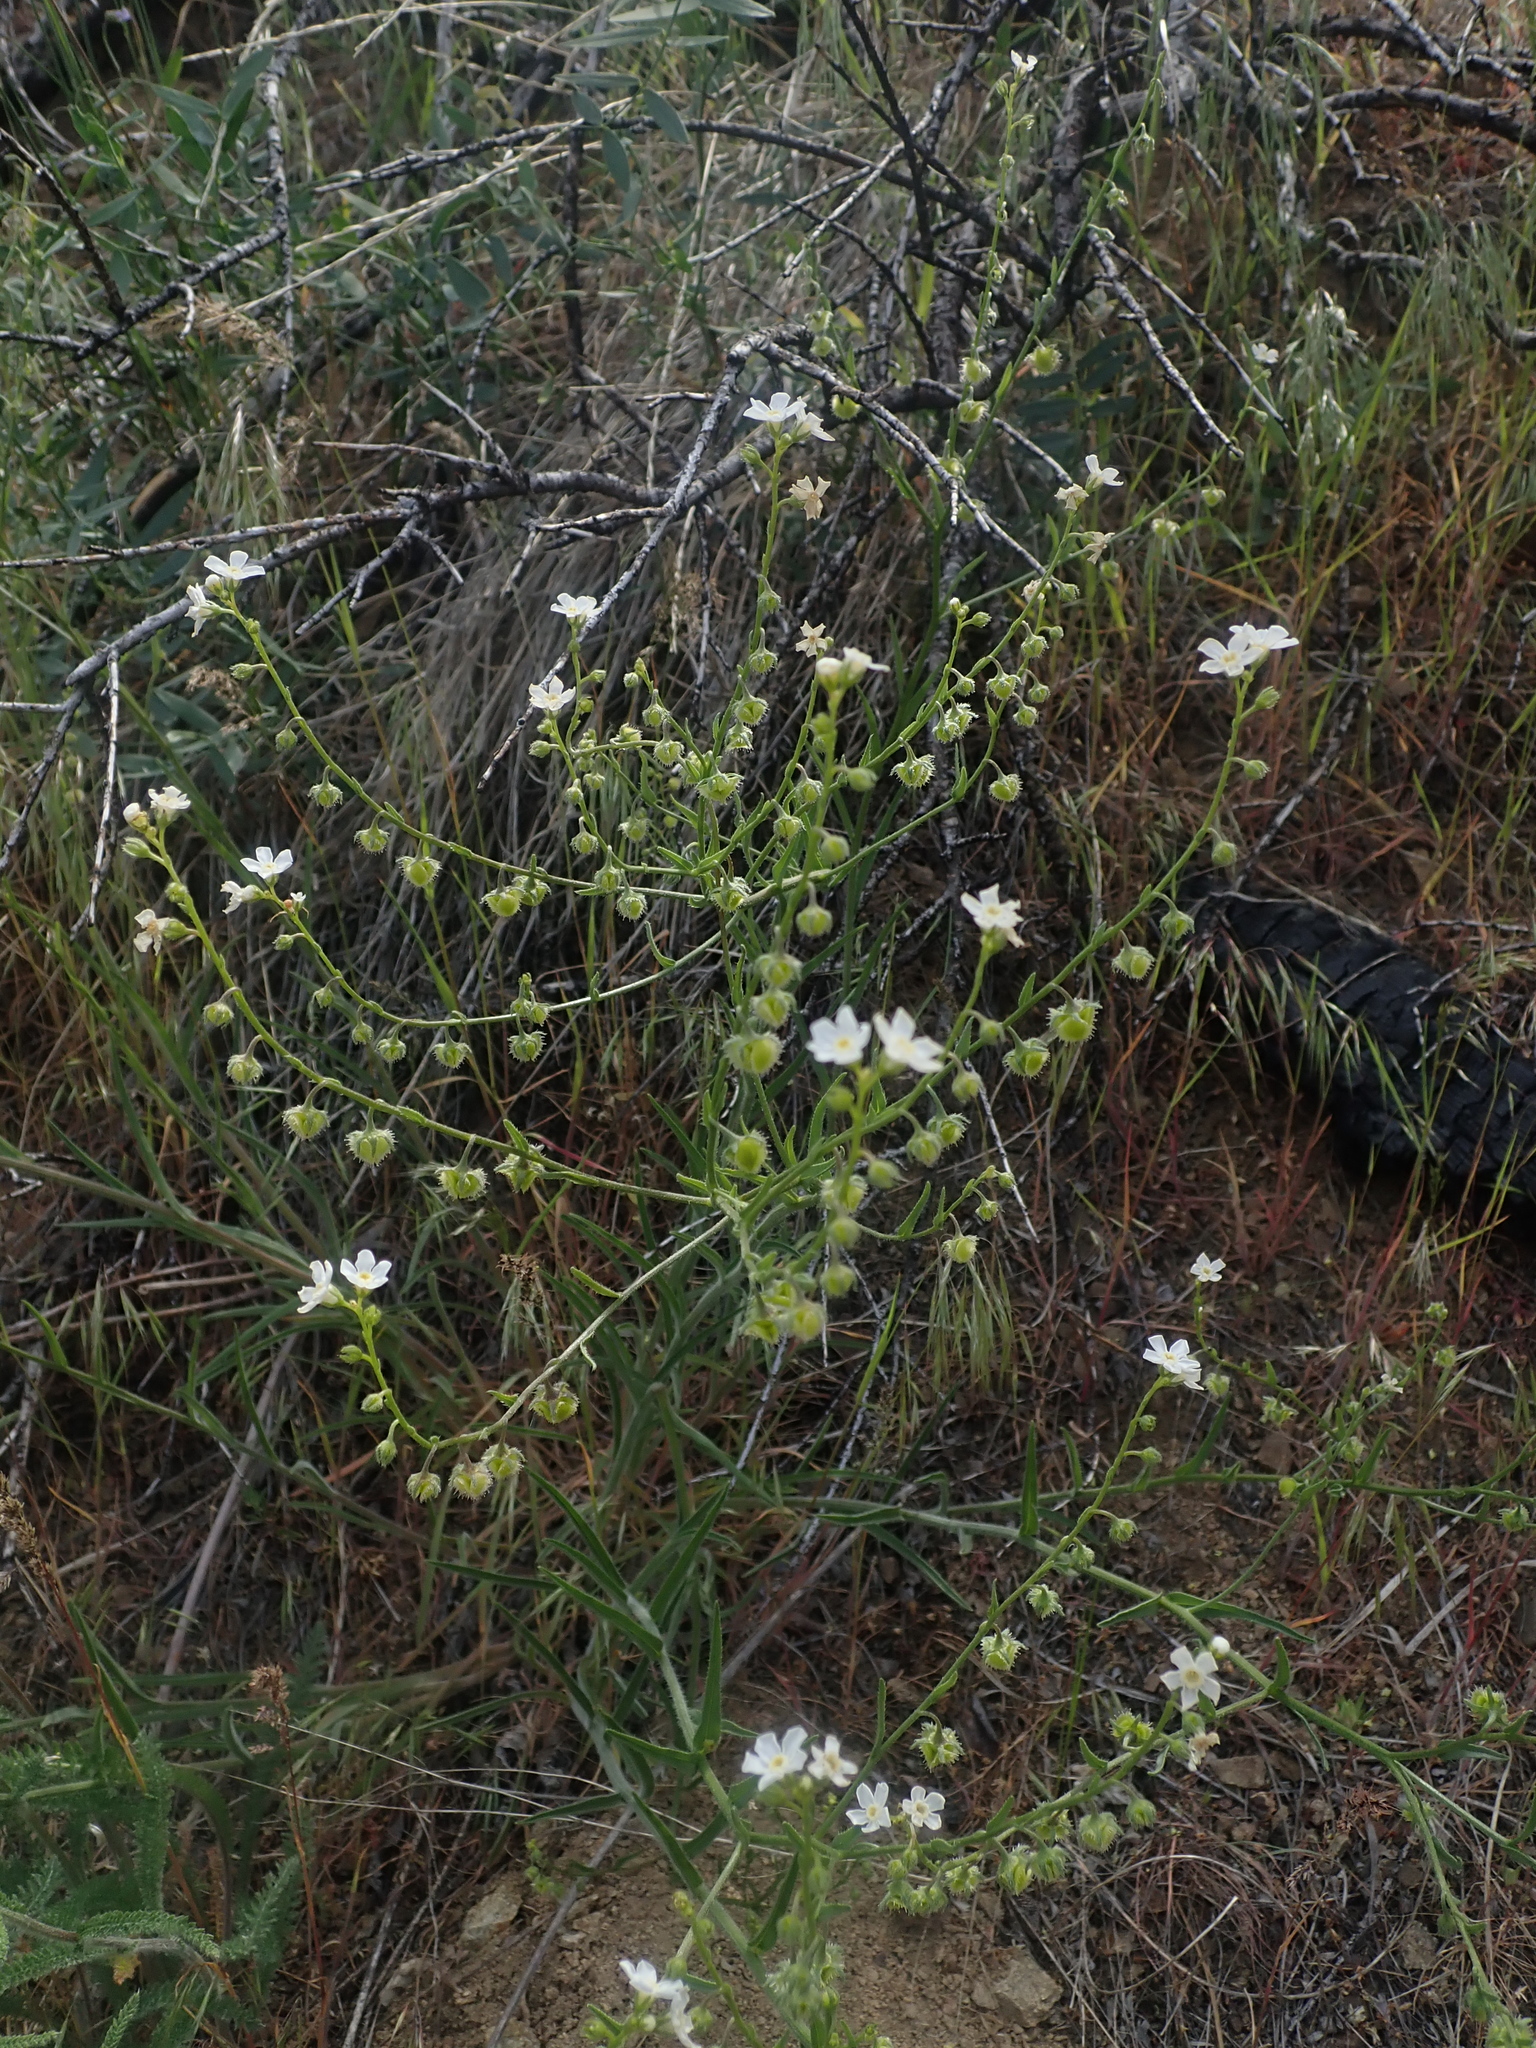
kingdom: Plantae
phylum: Tracheophyta
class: Magnoliopsida
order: Boraginales
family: Boraginaceae
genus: Hackelia
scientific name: Hackelia diffusa
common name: Spreading hackelia
